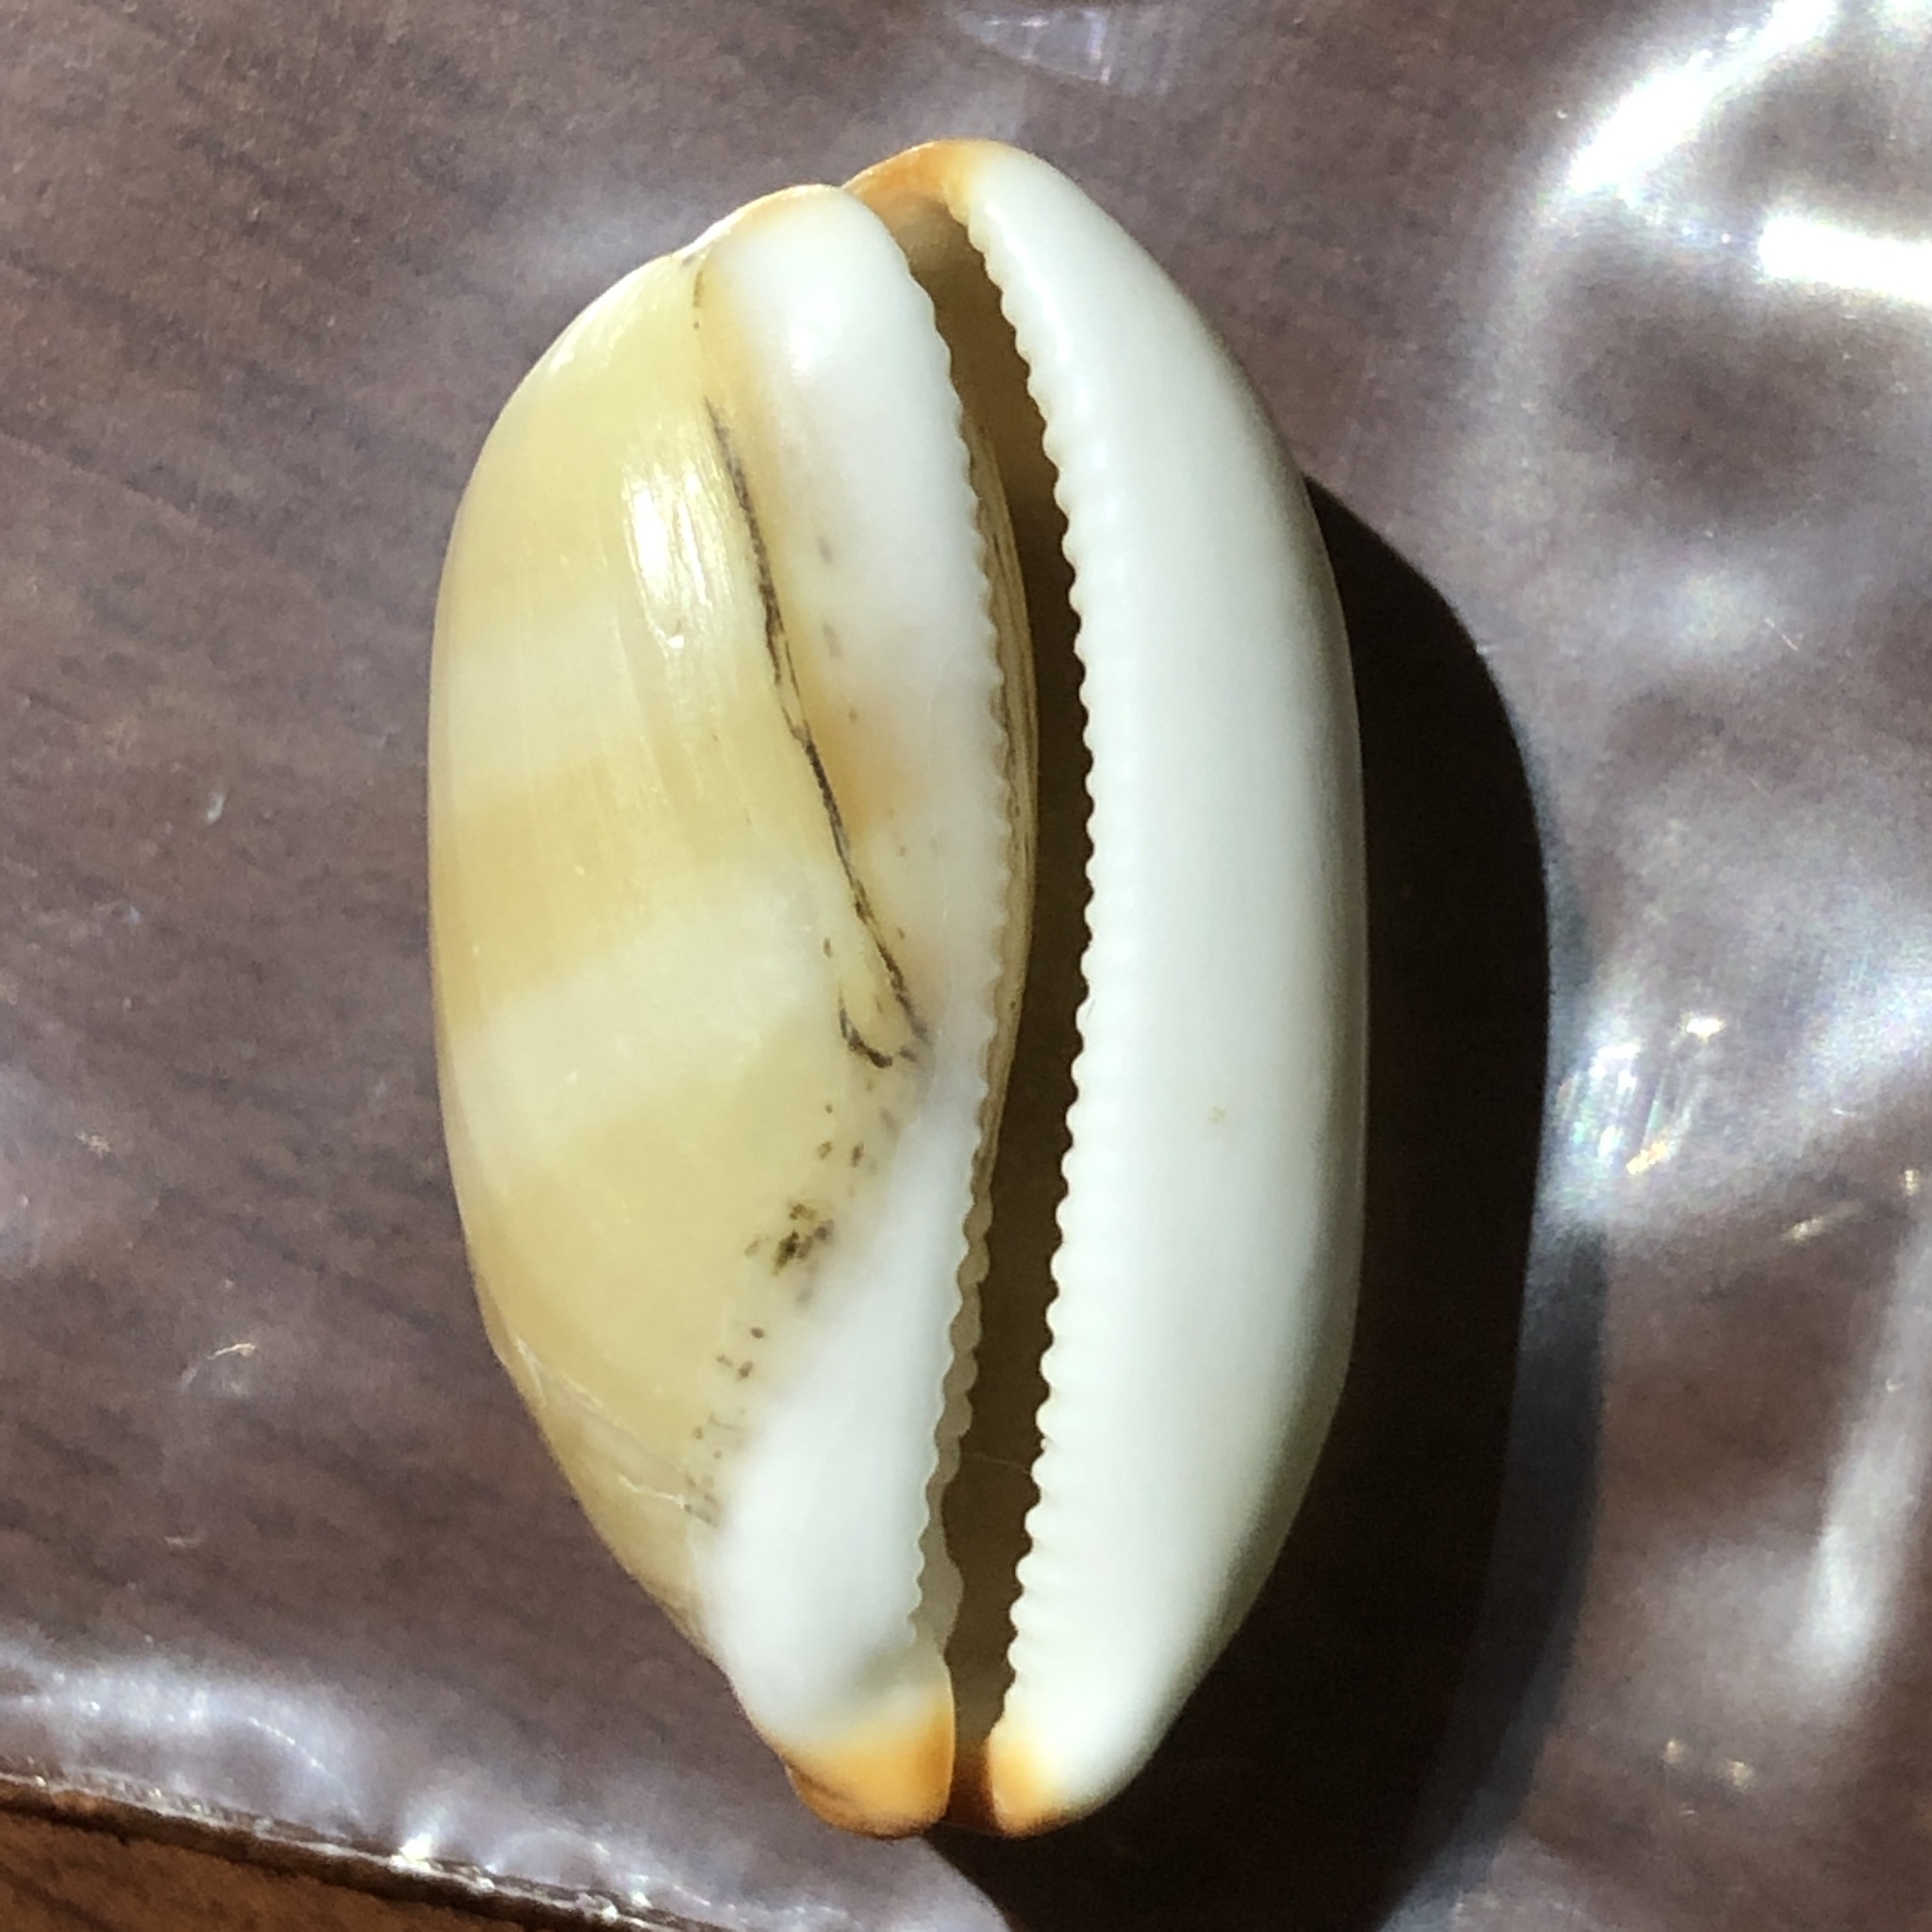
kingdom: Animalia
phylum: Mollusca
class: Gastropoda
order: Littorinimorpha
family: Cypraeidae
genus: Luria
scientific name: Luria isabella
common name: Isabell cowry
